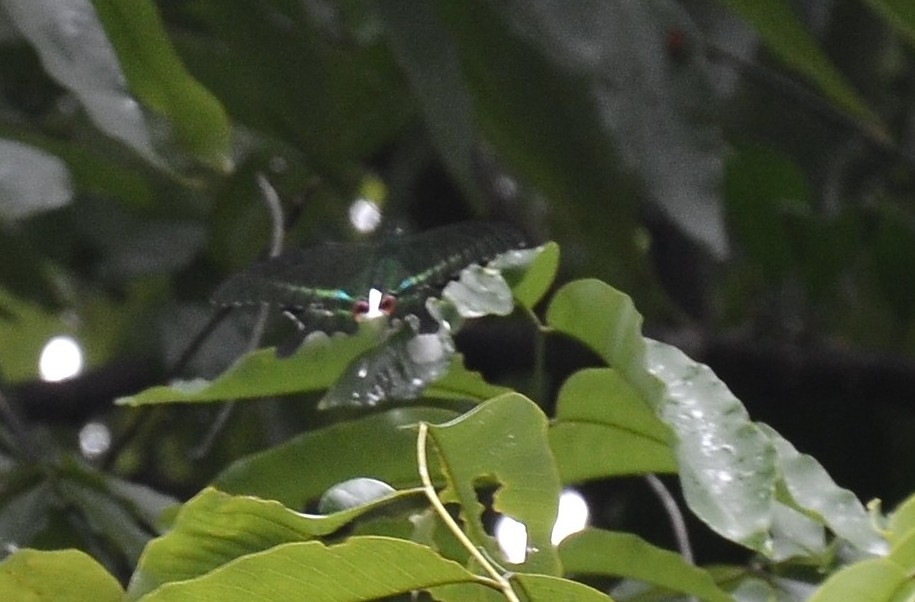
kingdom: Animalia
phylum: Arthropoda
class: Insecta
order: Lepidoptera
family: Papilionidae
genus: Papilio
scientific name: Papilio paris
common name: Paris peacock
